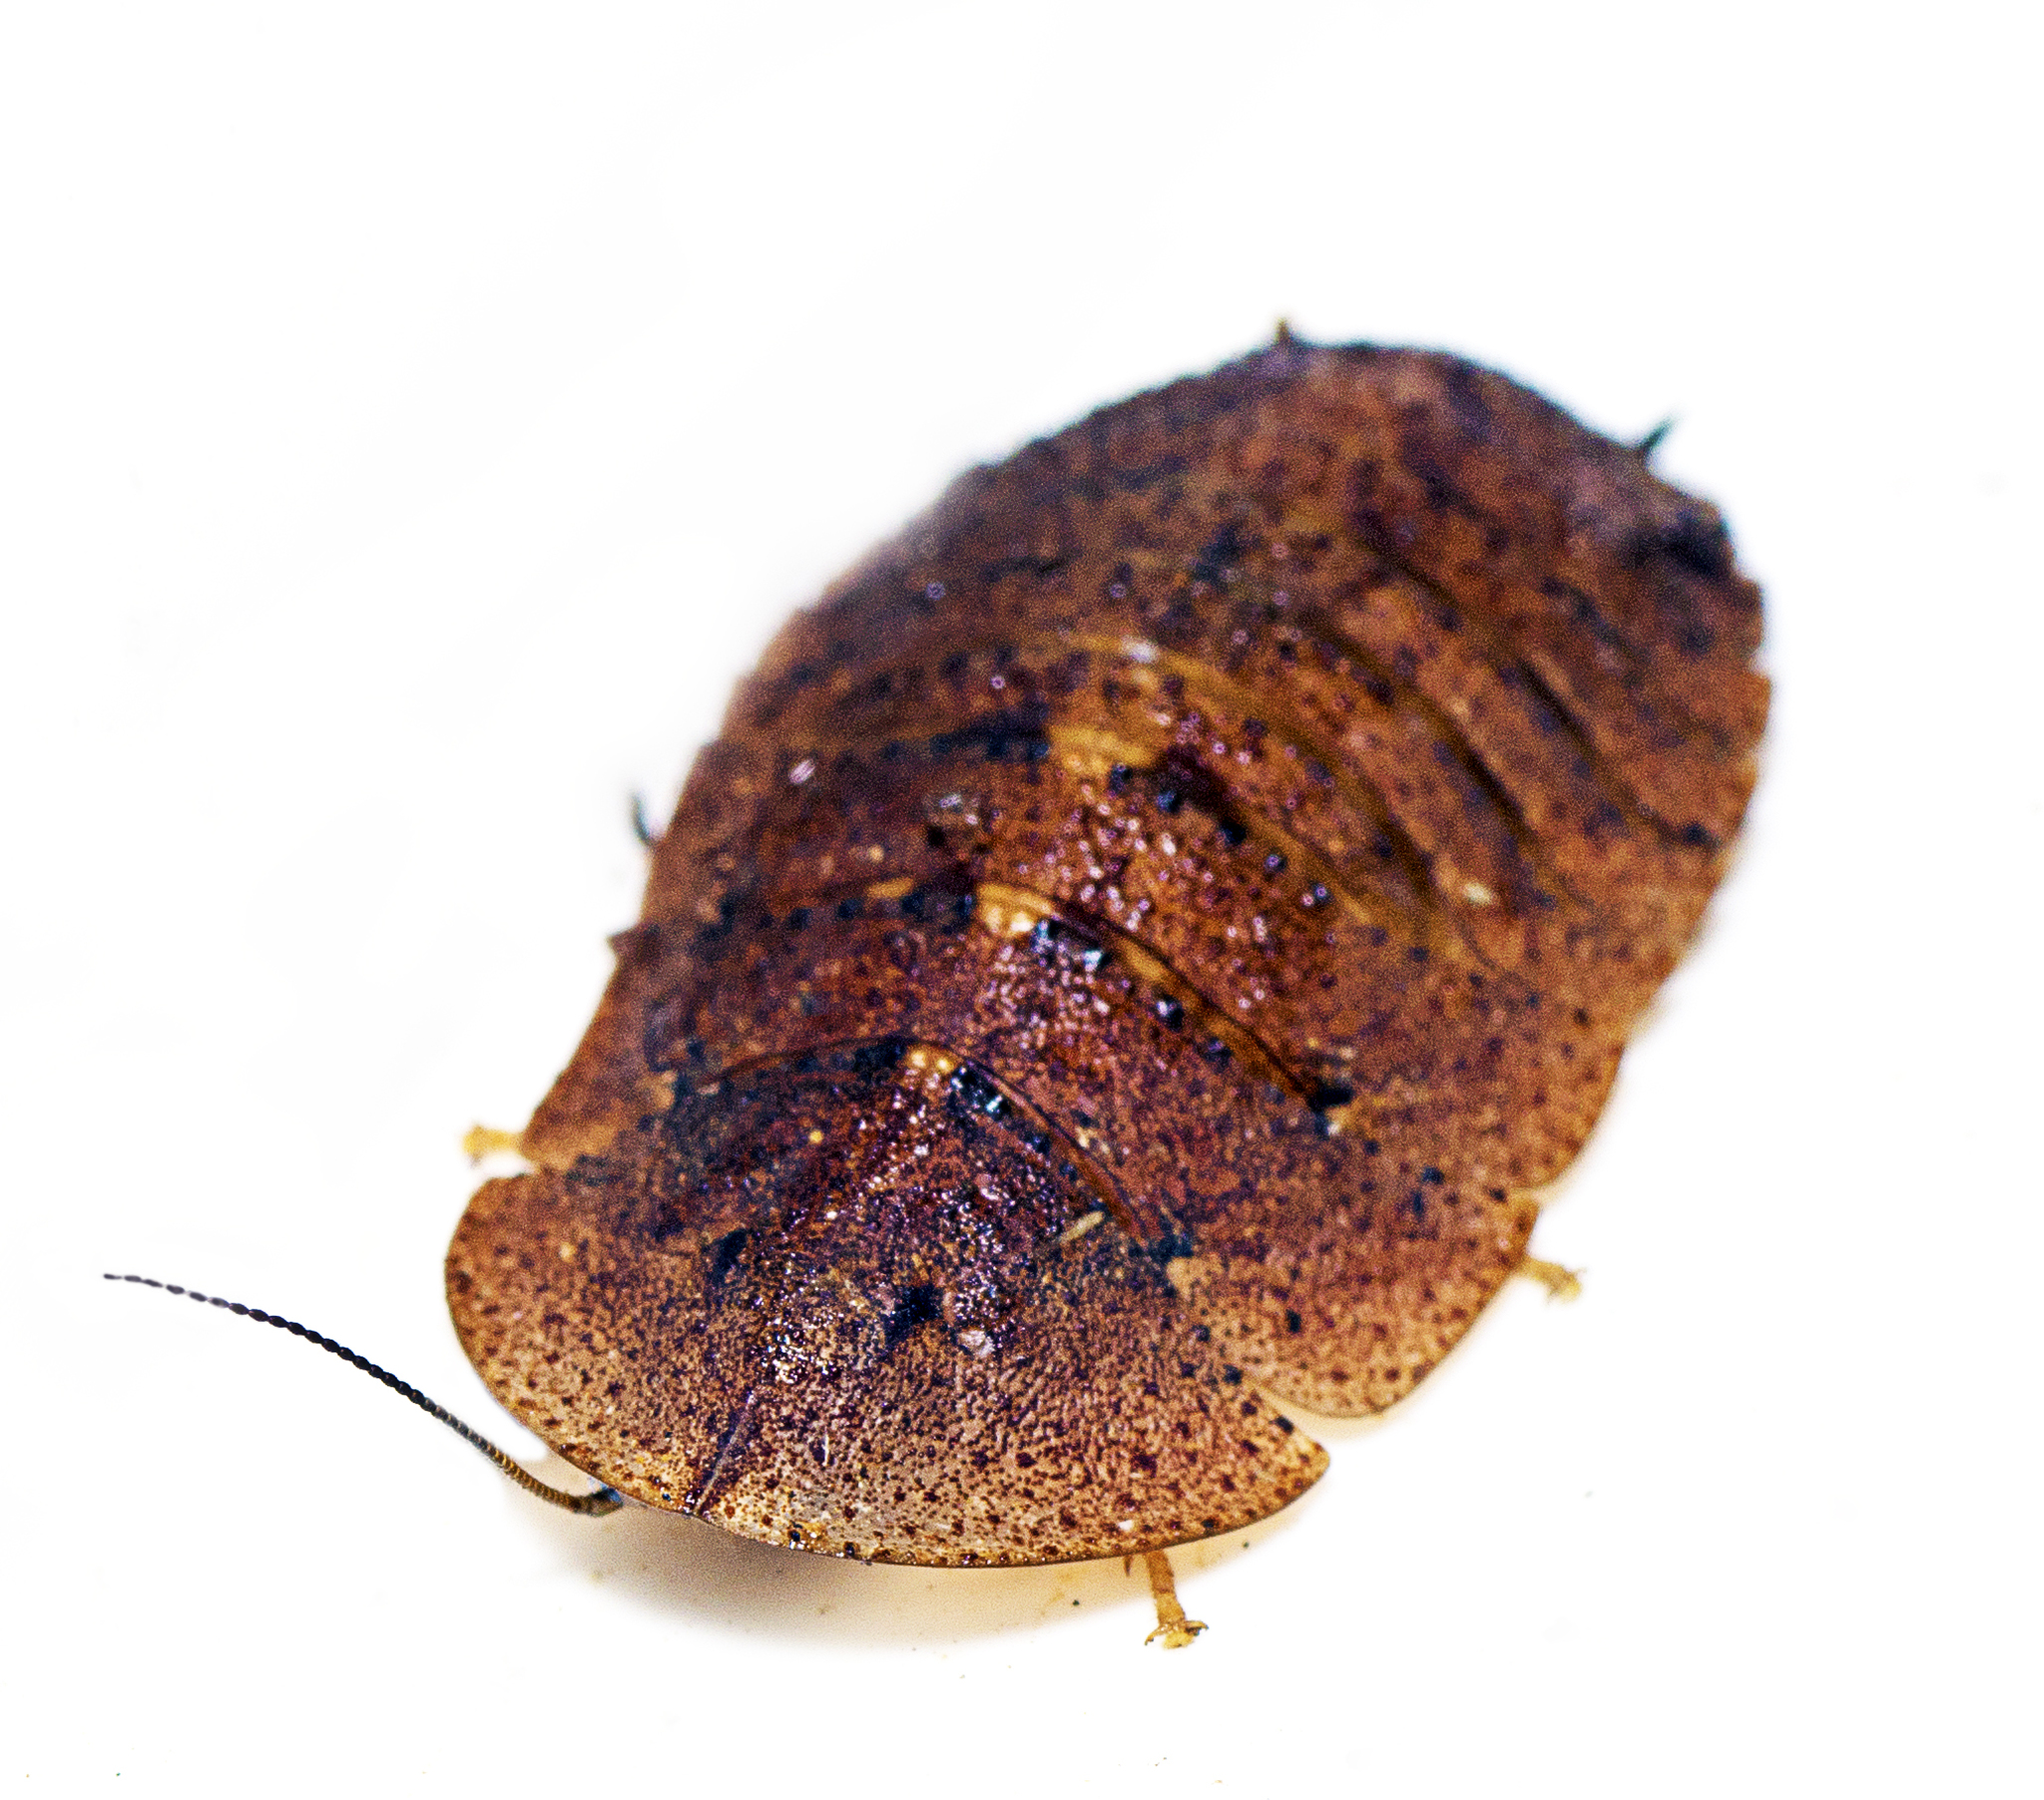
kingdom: Animalia
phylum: Arthropoda
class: Insecta
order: Blattodea
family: Blaberidae
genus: Laxta
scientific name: Laxta shawi
